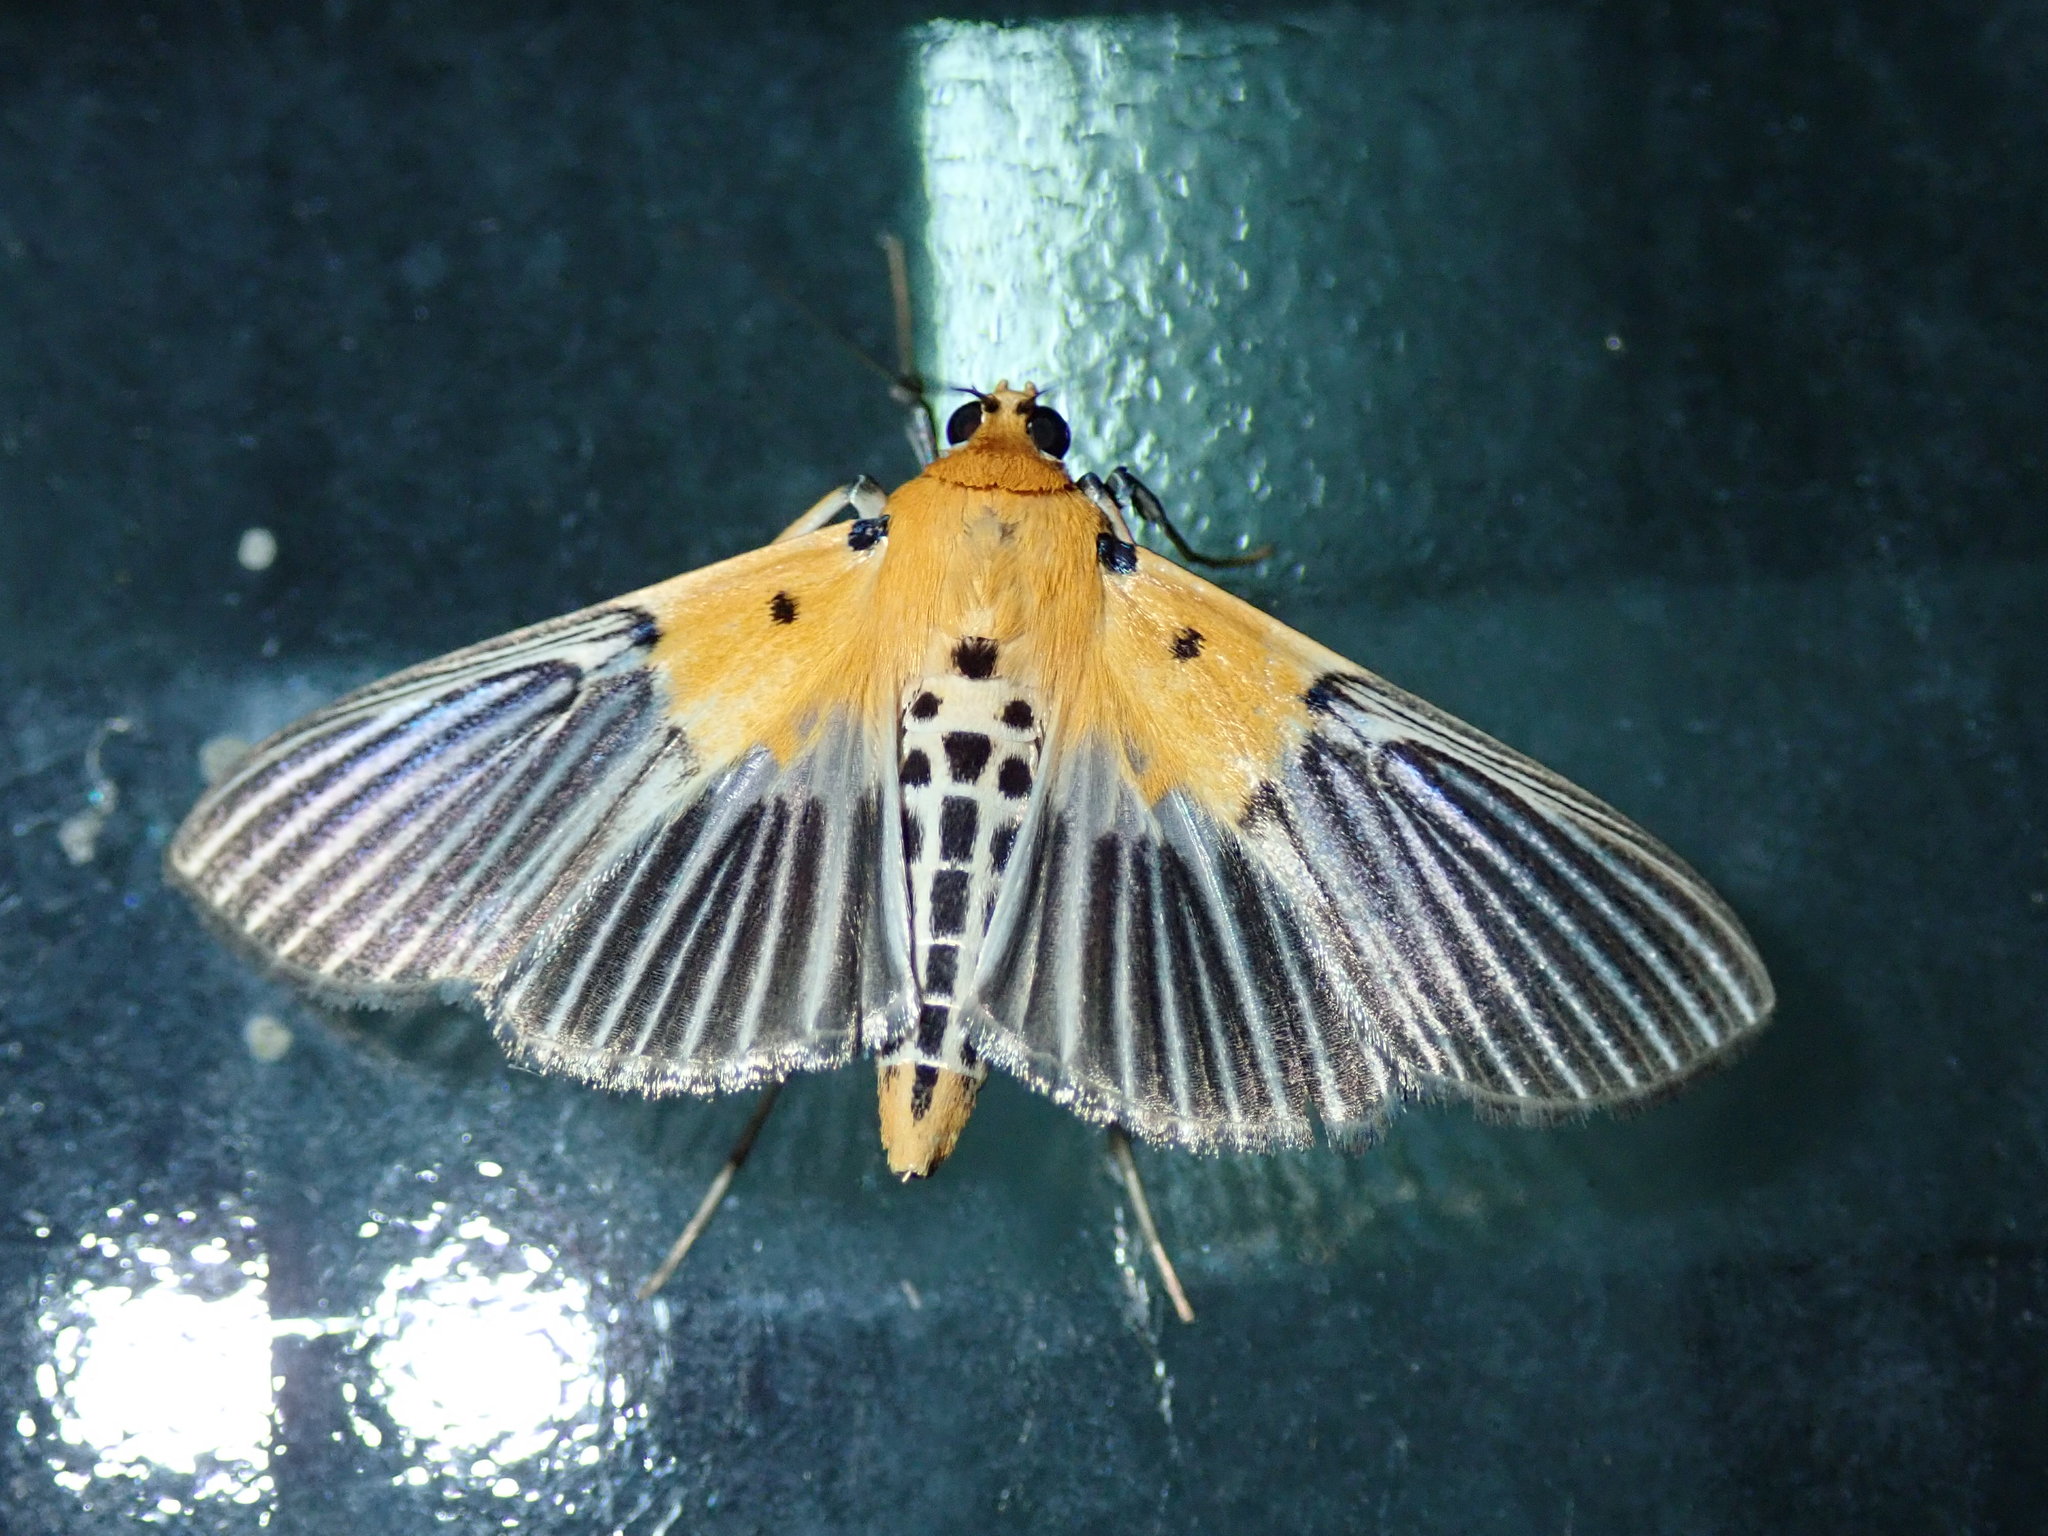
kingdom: Animalia
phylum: Arthropoda
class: Insecta
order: Lepidoptera
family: Crambidae
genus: Nevrina
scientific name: Nevrina procopia
